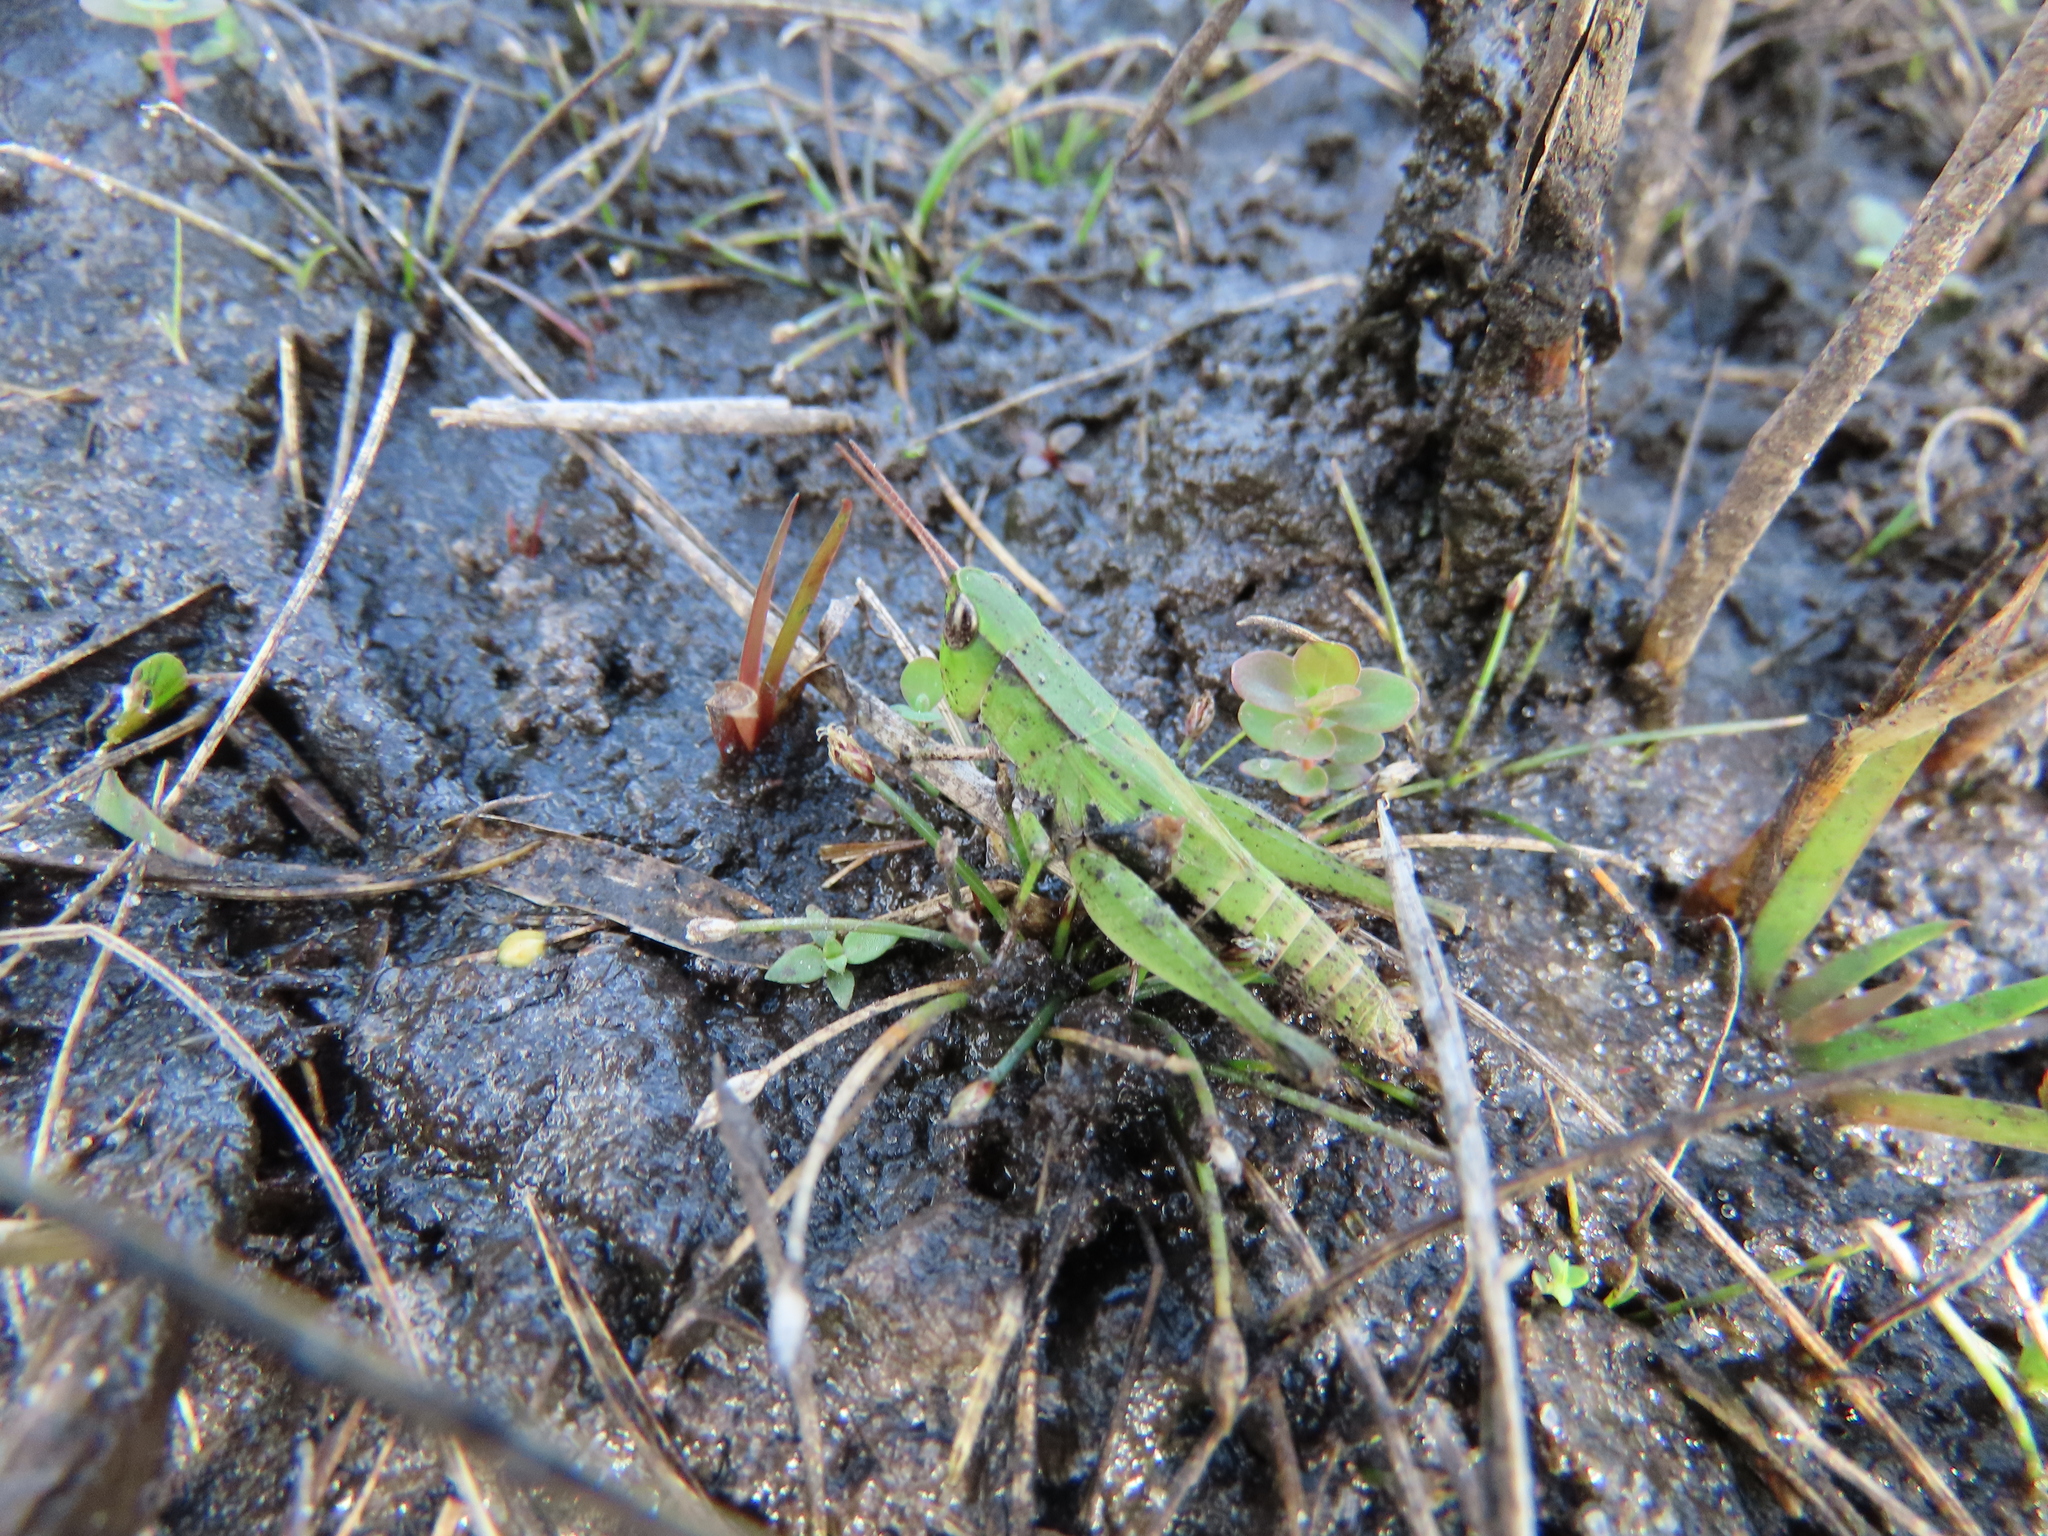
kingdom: Animalia
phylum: Arthropoda
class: Insecta
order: Orthoptera
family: Acrididae
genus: Dichromorpha
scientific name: Dichromorpha viridis
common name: Short-winged green grasshopper
